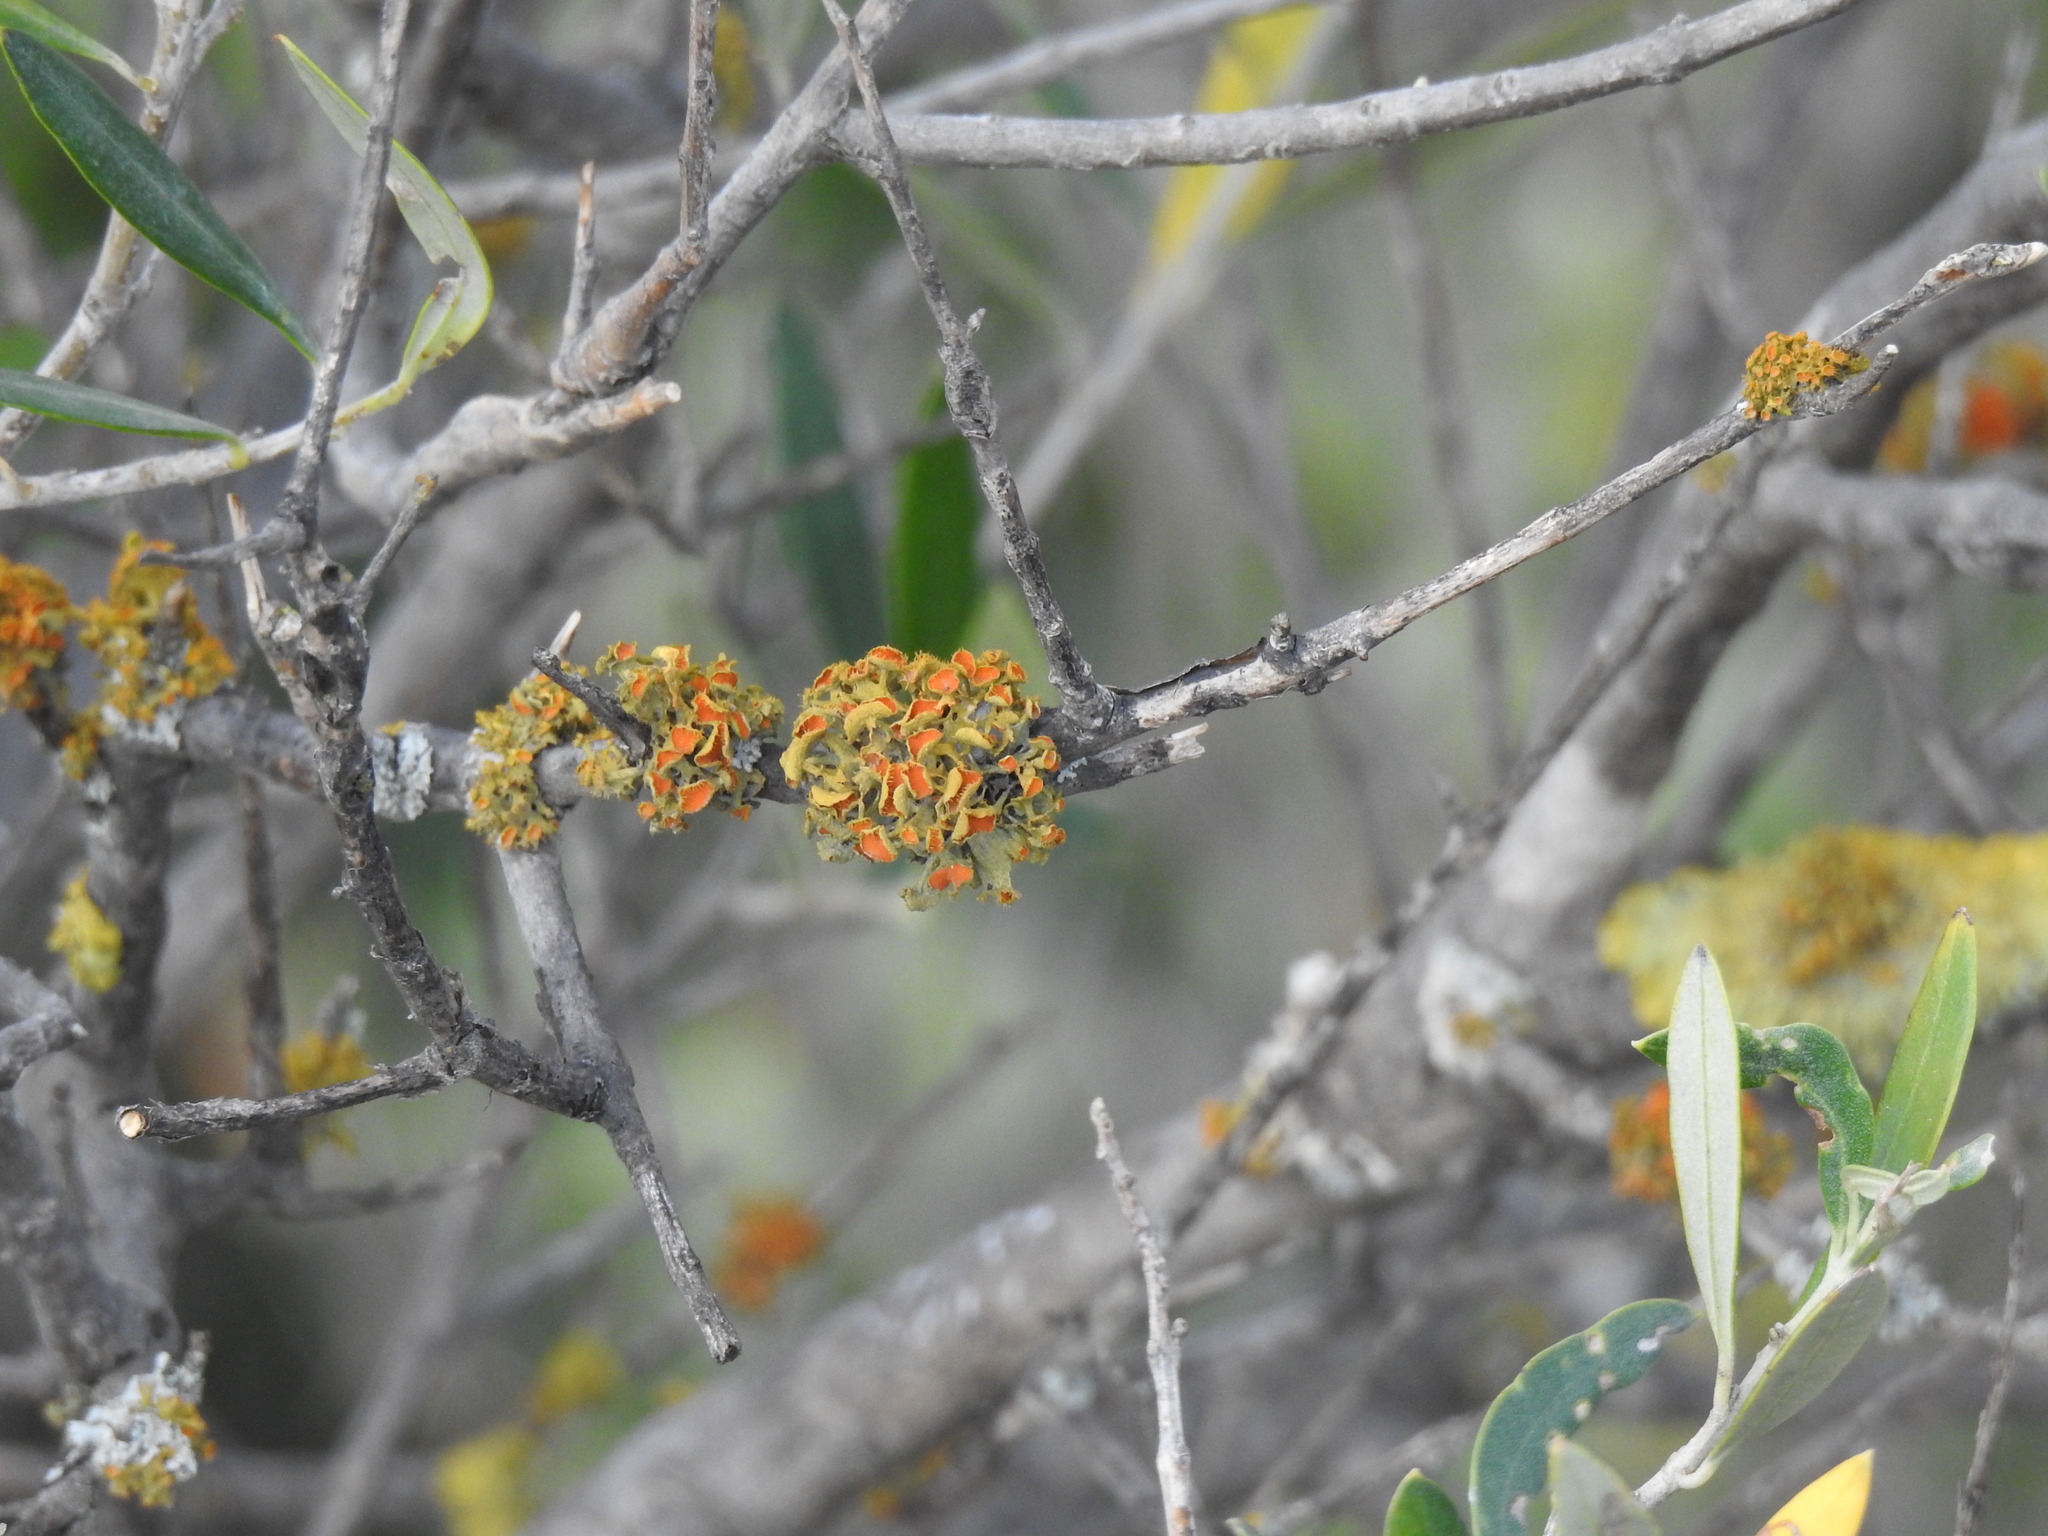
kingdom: Fungi
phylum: Ascomycota
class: Lecanoromycetes
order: Teloschistales
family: Teloschistaceae
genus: Niorma
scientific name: Niorma chrysophthalma
